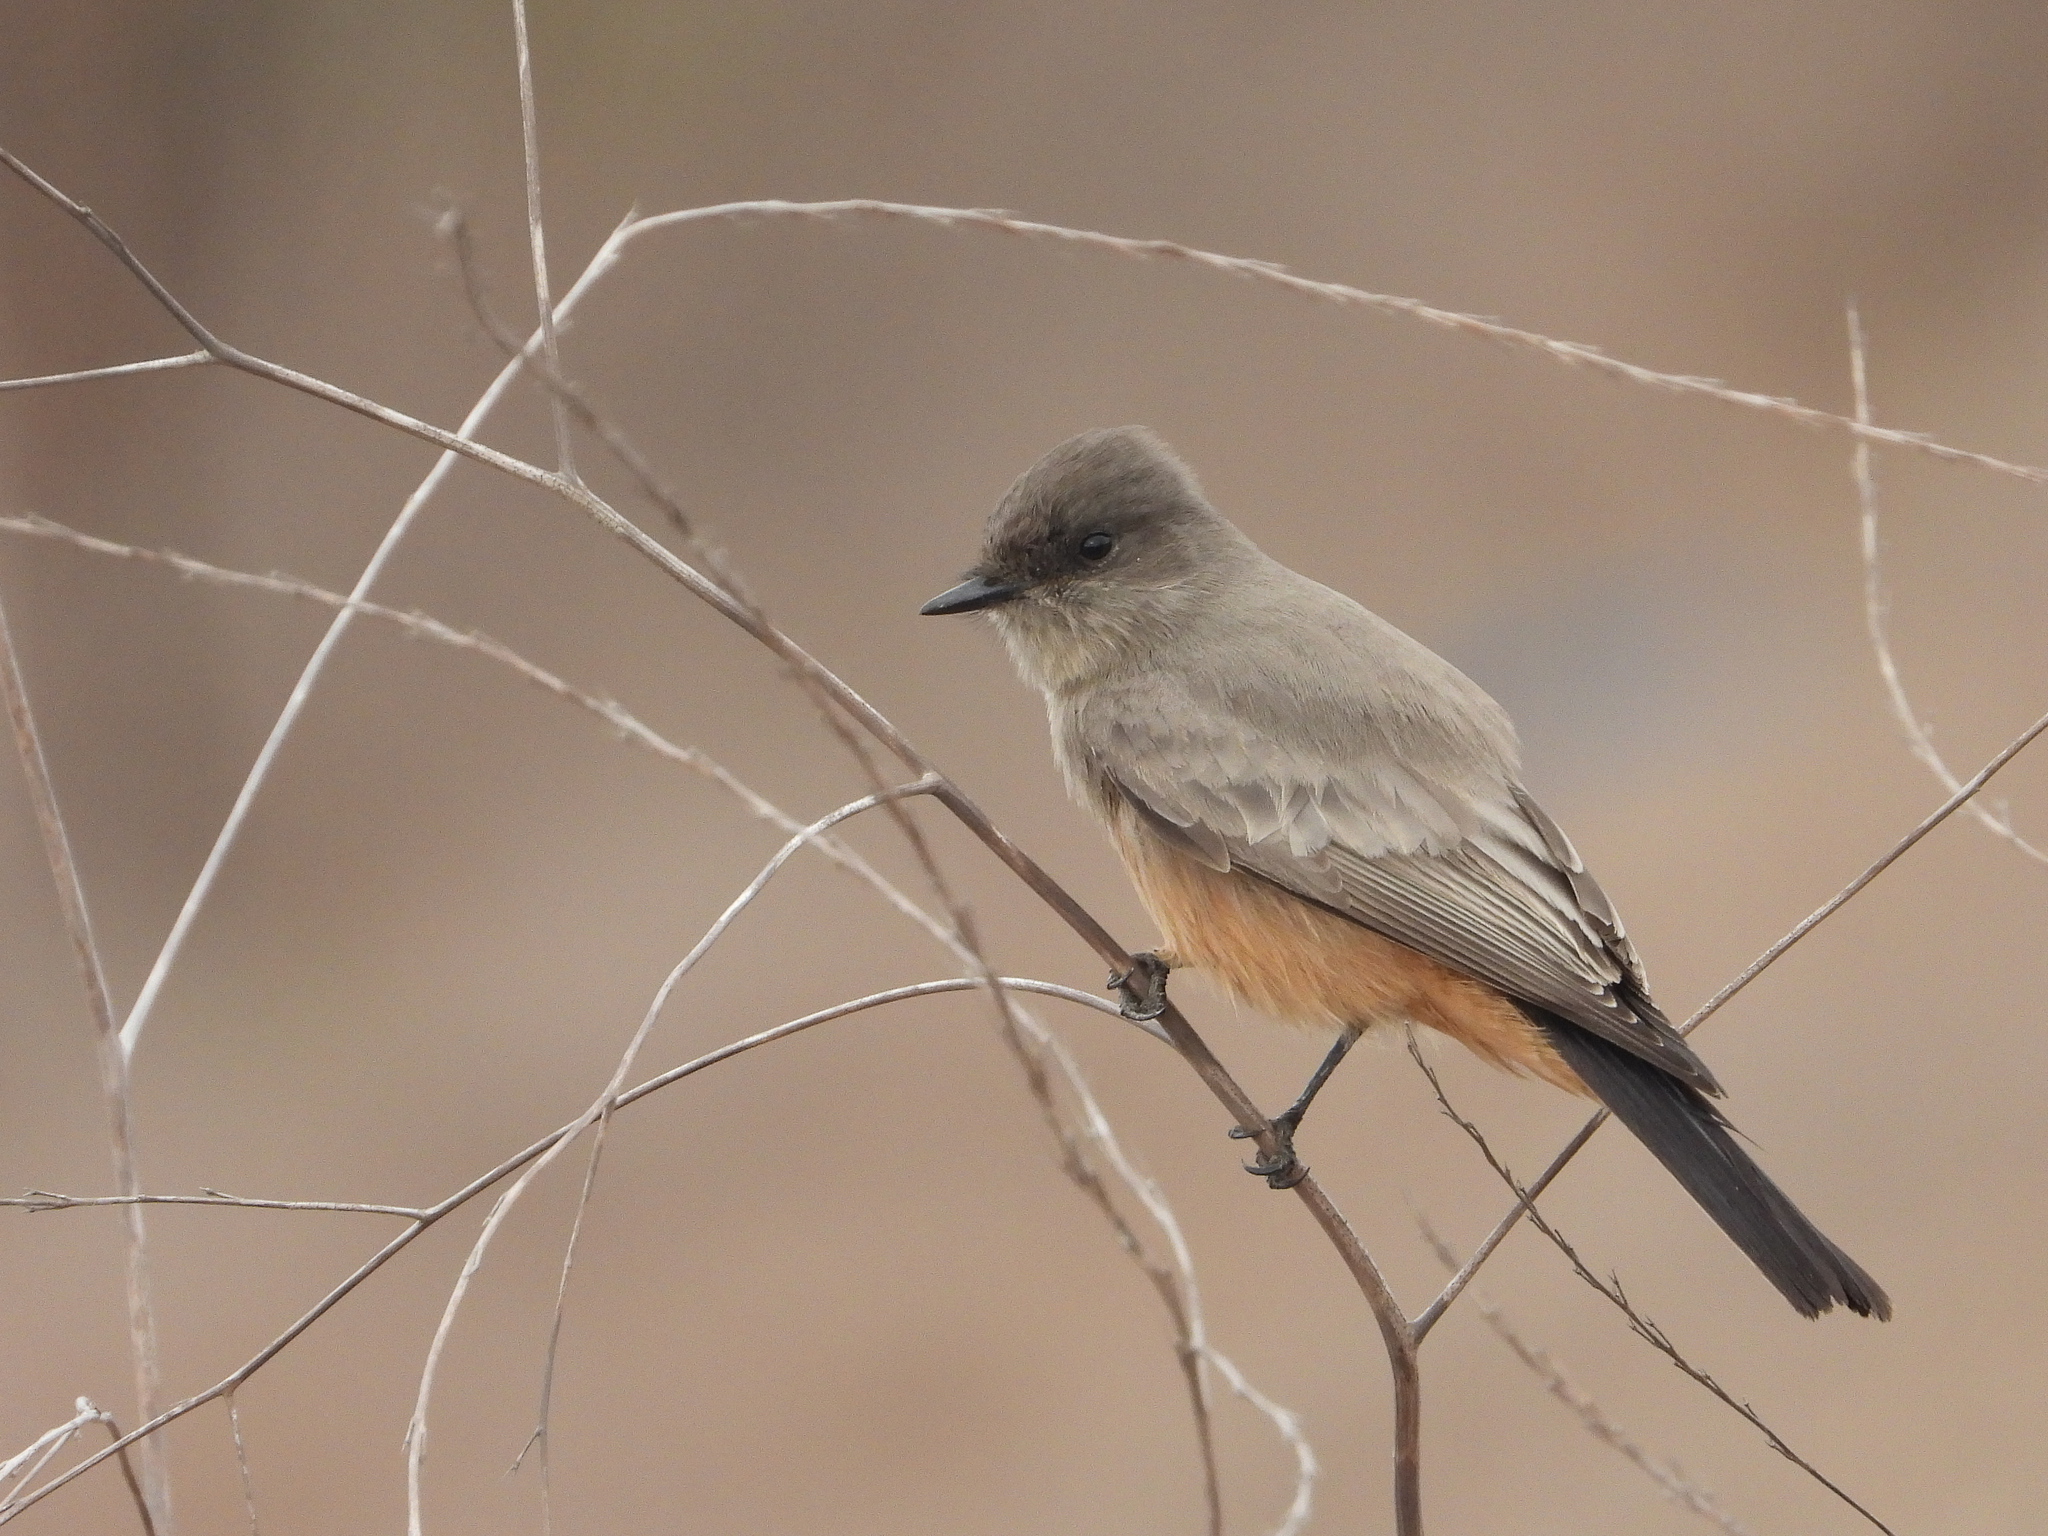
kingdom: Animalia
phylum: Chordata
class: Aves
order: Passeriformes
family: Tyrannidae
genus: Sayornis
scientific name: Sayornis saya
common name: Say's phoebe
